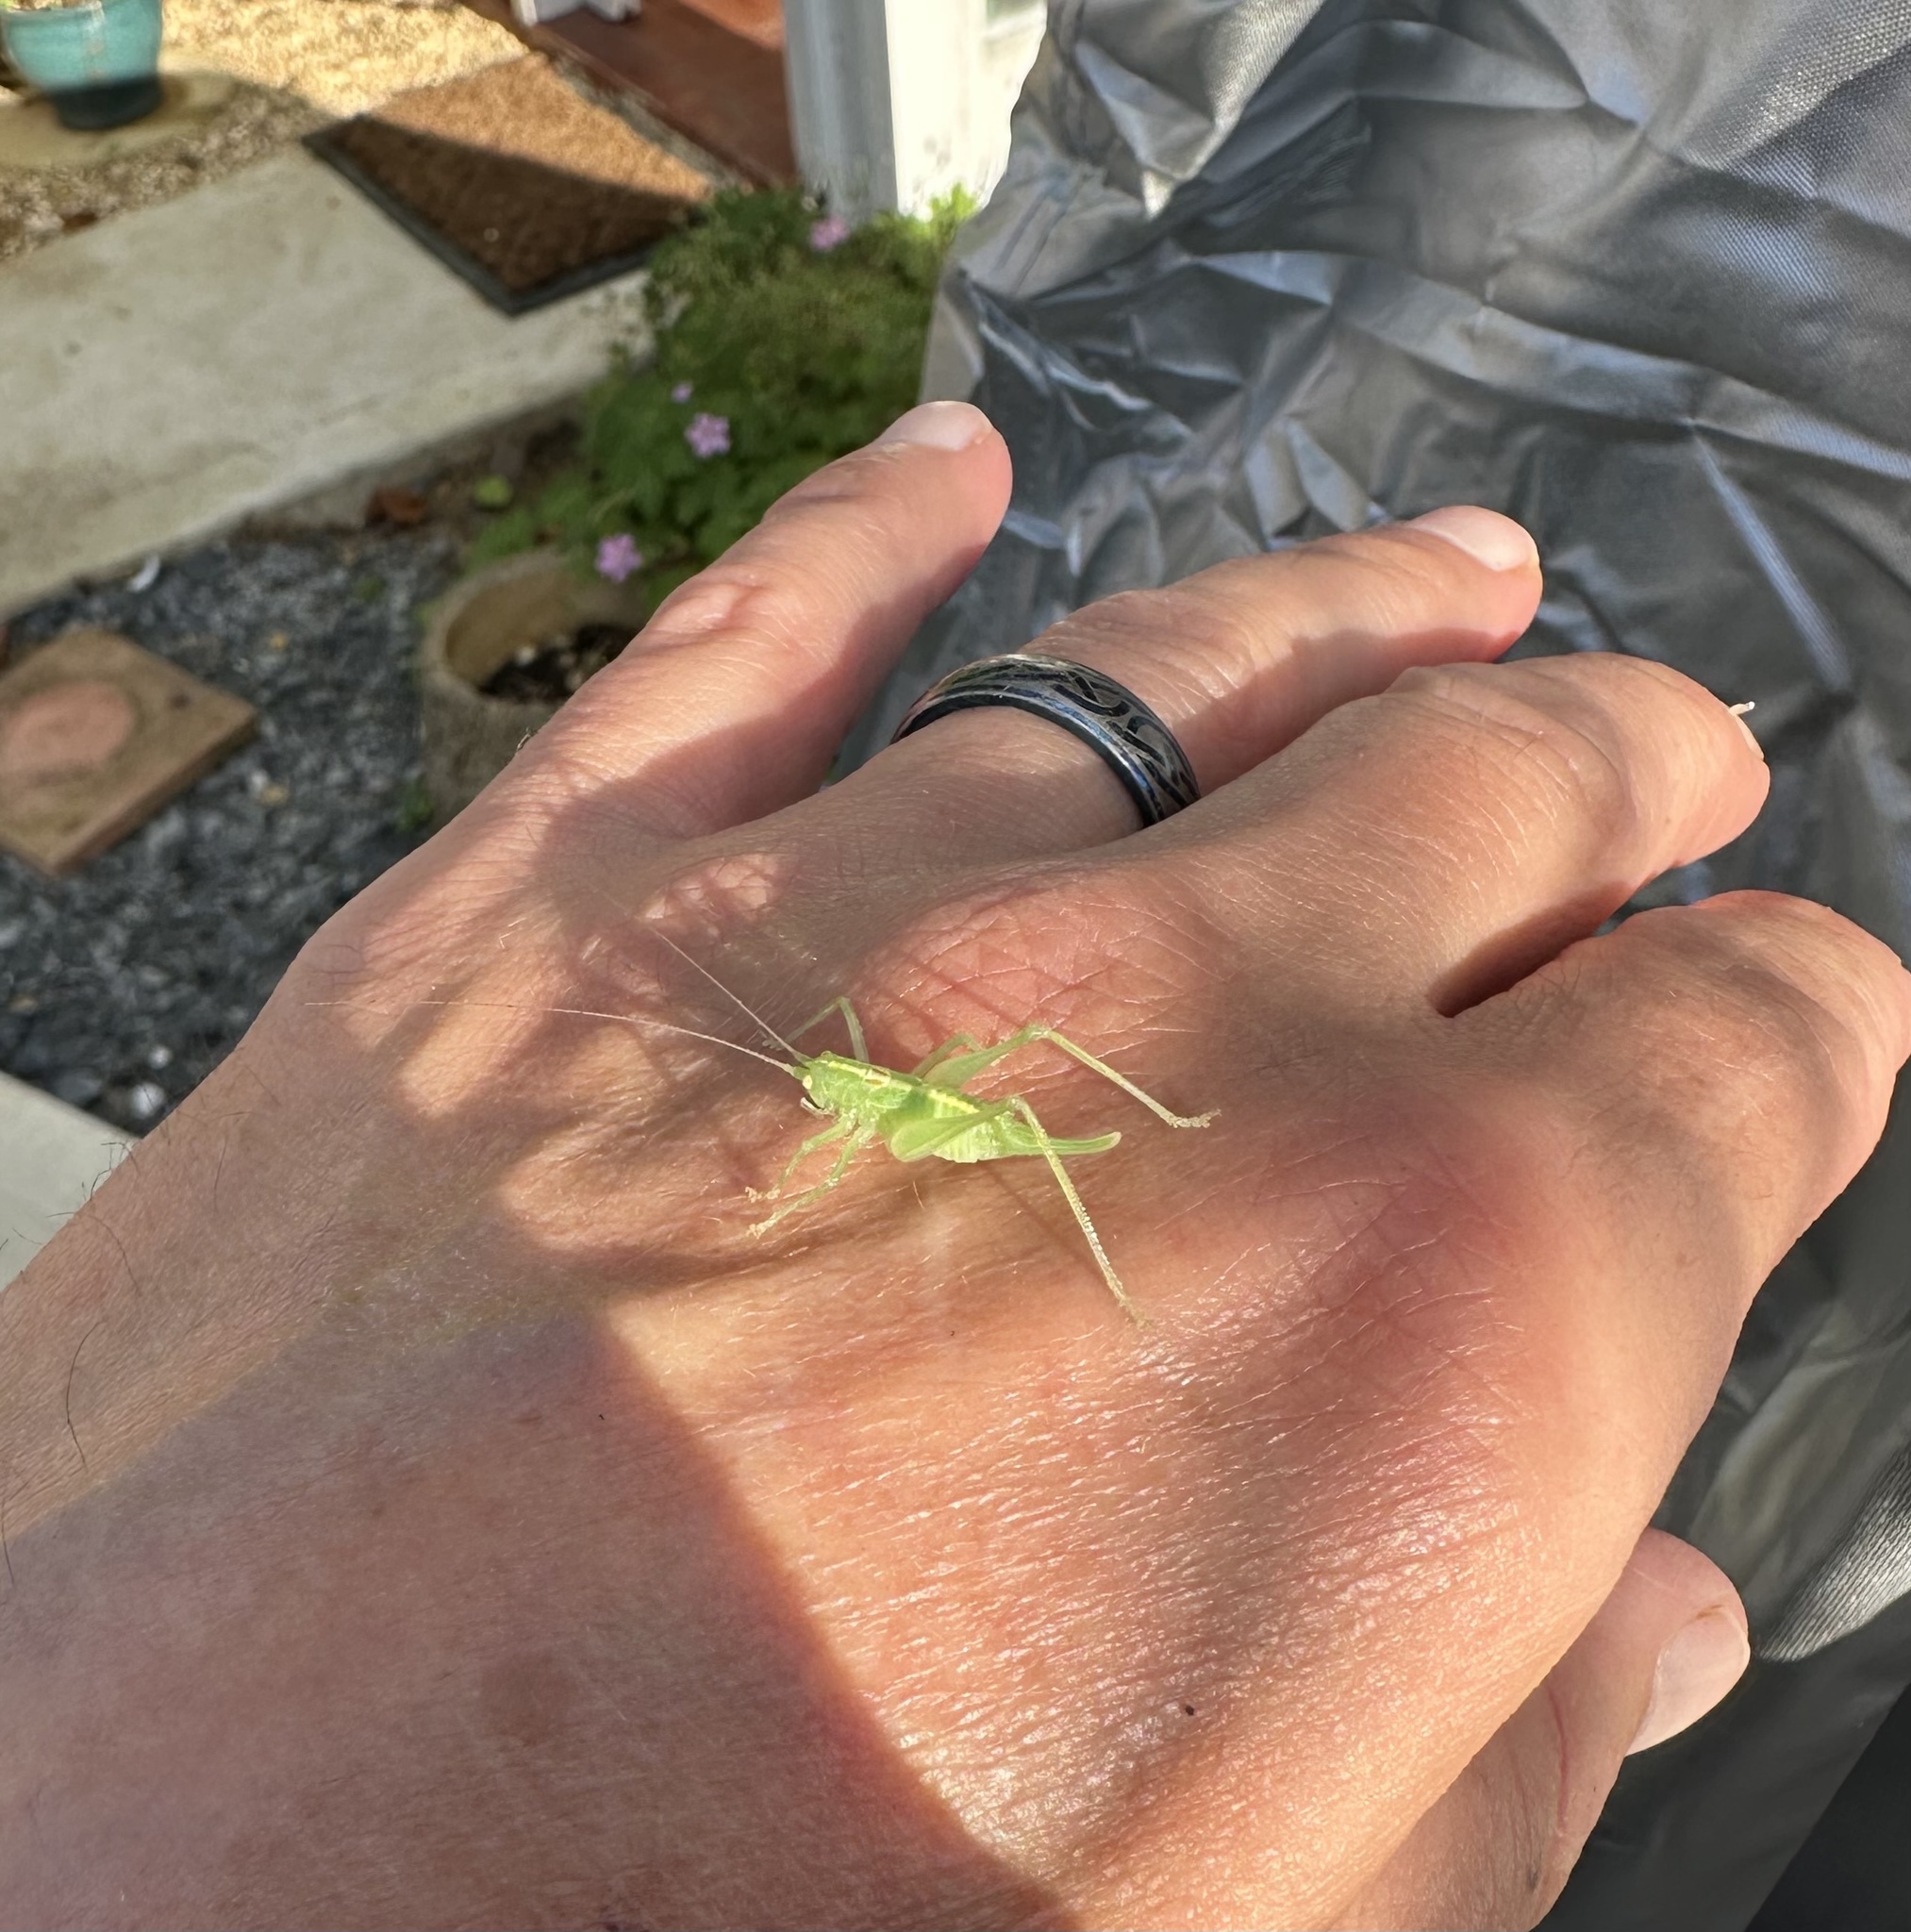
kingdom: Animalia
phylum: Arthropoda
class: Insecta
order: Orthoptera
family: Tettigoniidae
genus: Meconema
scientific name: Meconema meridionale
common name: Southern oak bush-cricket
